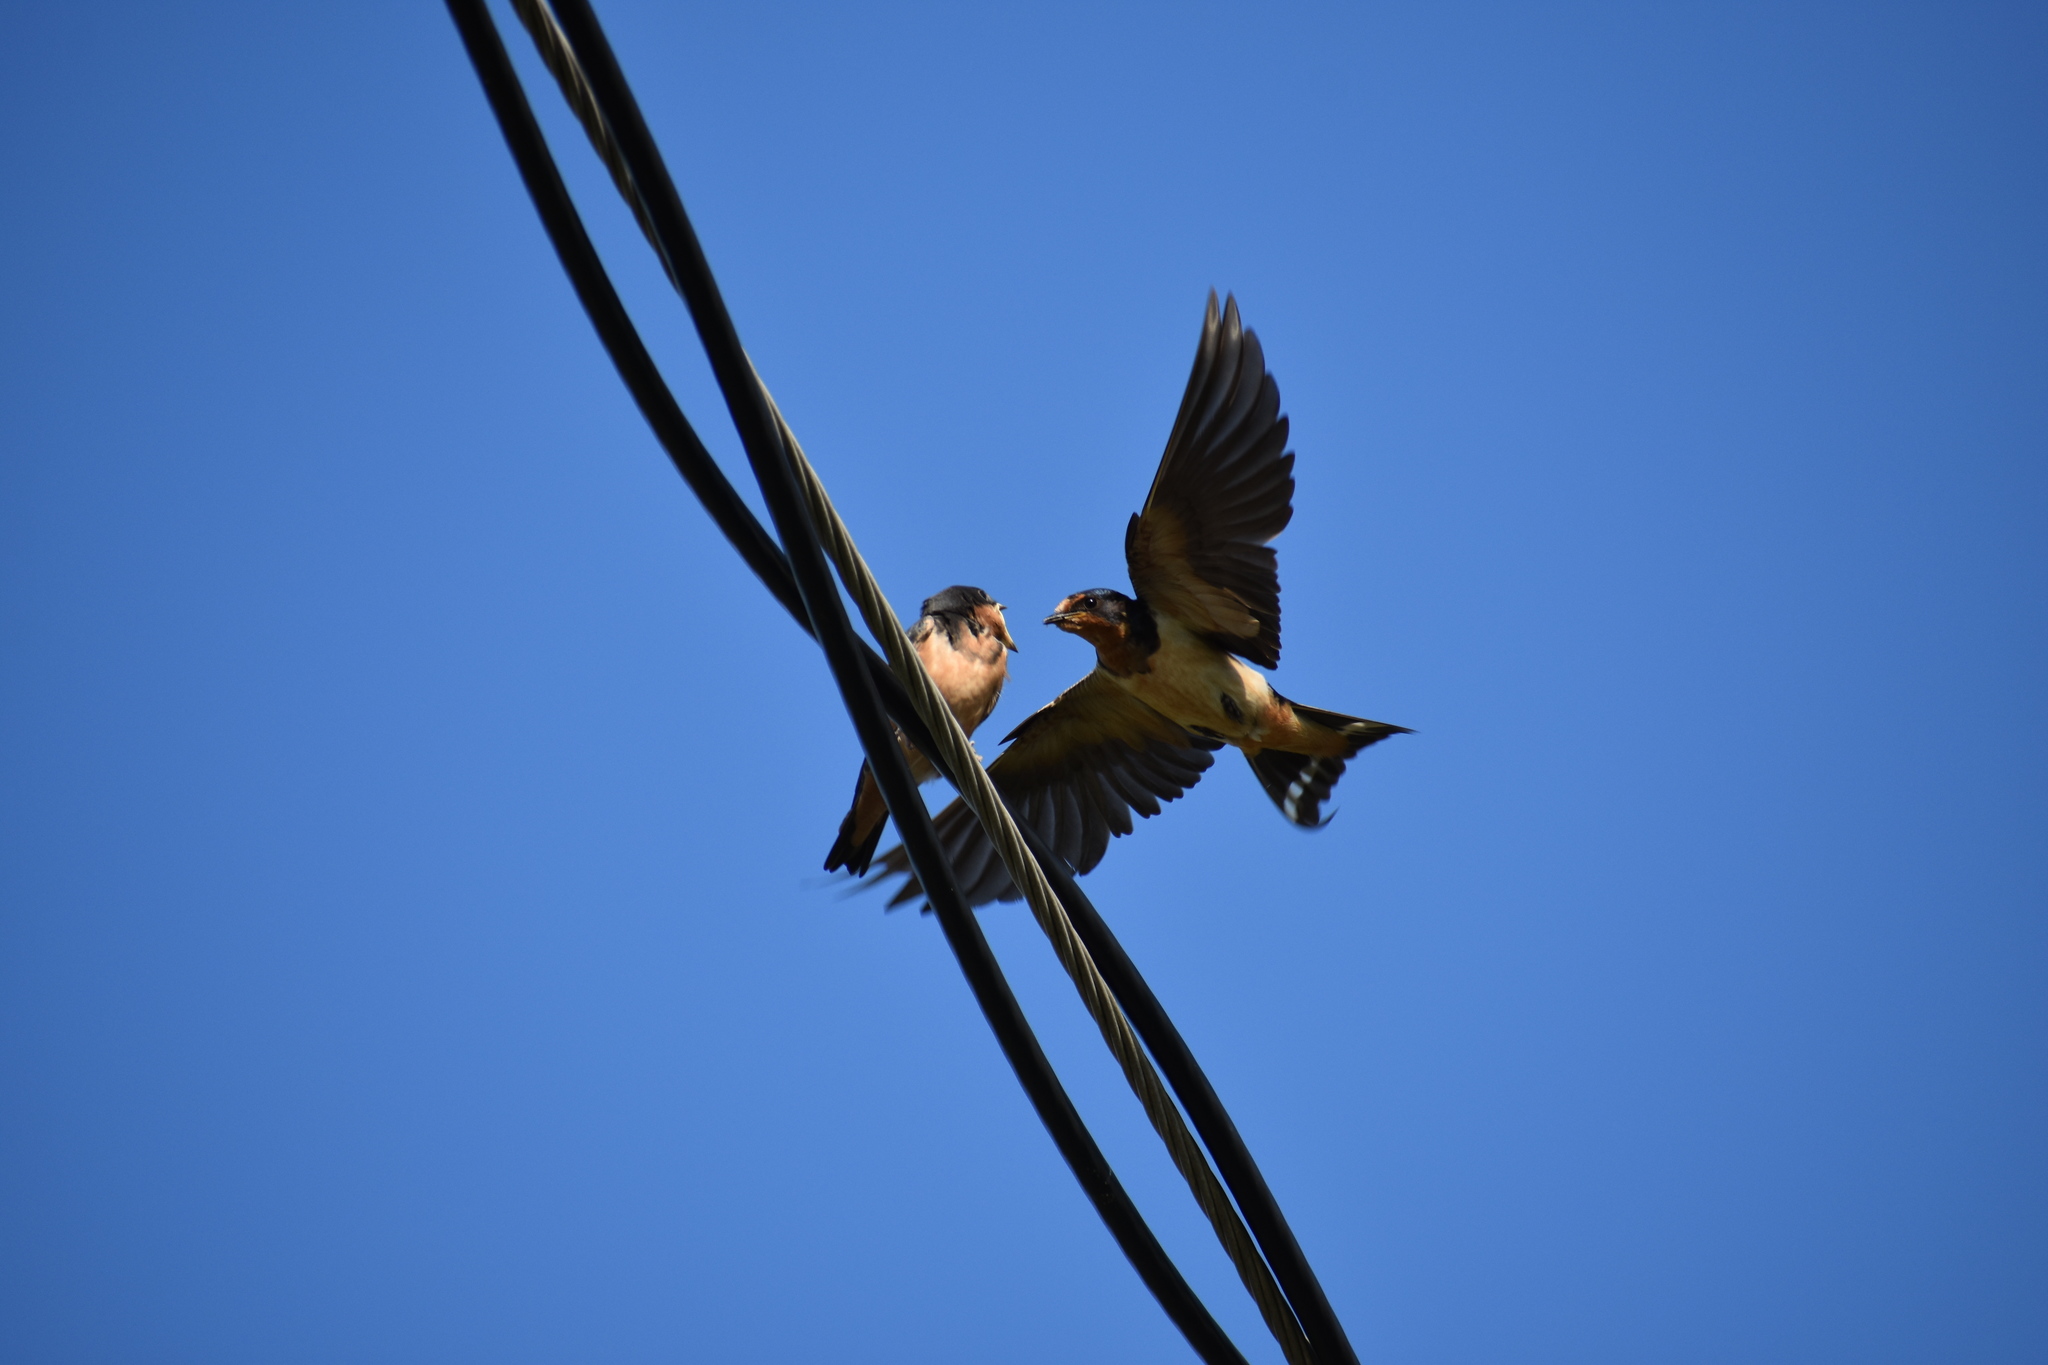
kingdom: Animalia
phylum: Chordata
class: Aves
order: Passeriformes
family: Hirundinidae
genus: Hirundo
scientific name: Hirundo rustica
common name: Barn swallow
